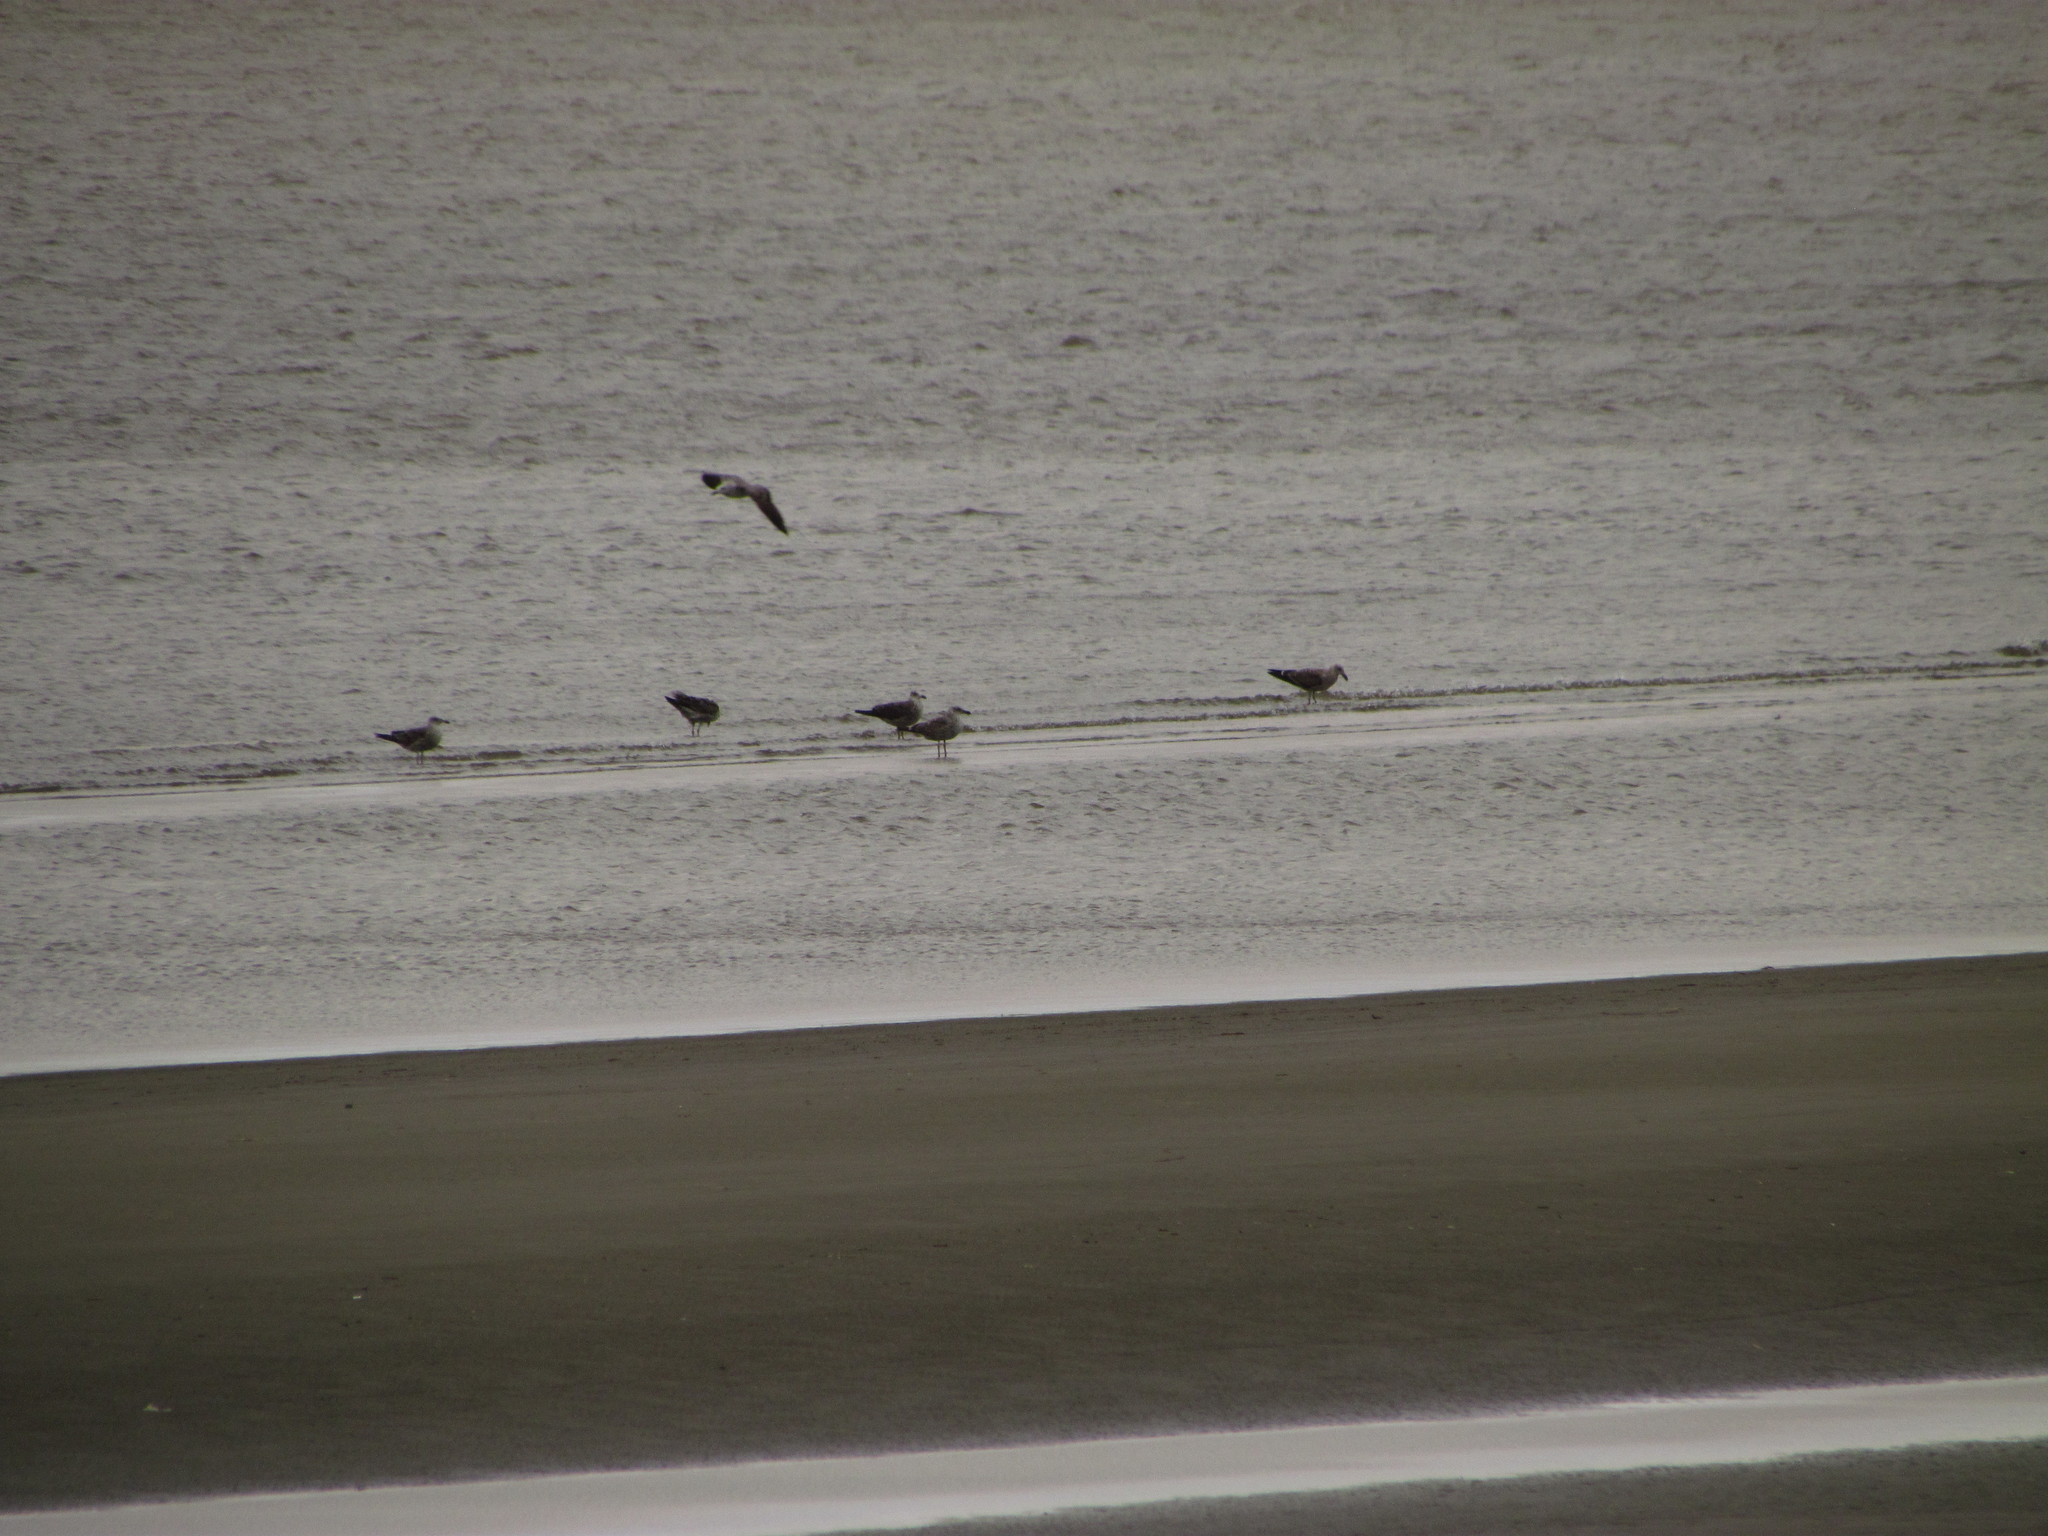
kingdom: Animalia
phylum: Chordata
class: Aves
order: Charadriiformes
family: Laridae
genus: Larus
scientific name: Larus dominicanus
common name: Kelp gull
